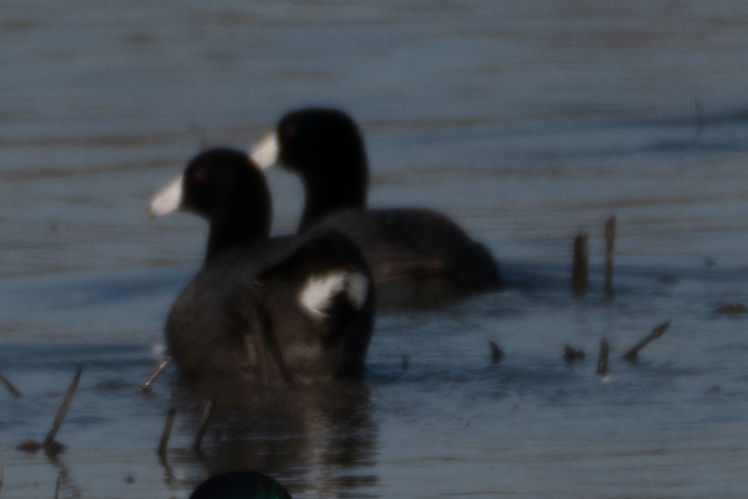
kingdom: Animalia
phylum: Chordata
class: Aves
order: Gruiformes
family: Rallidae
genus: Fulica
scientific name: Fulica americana
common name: American coot
